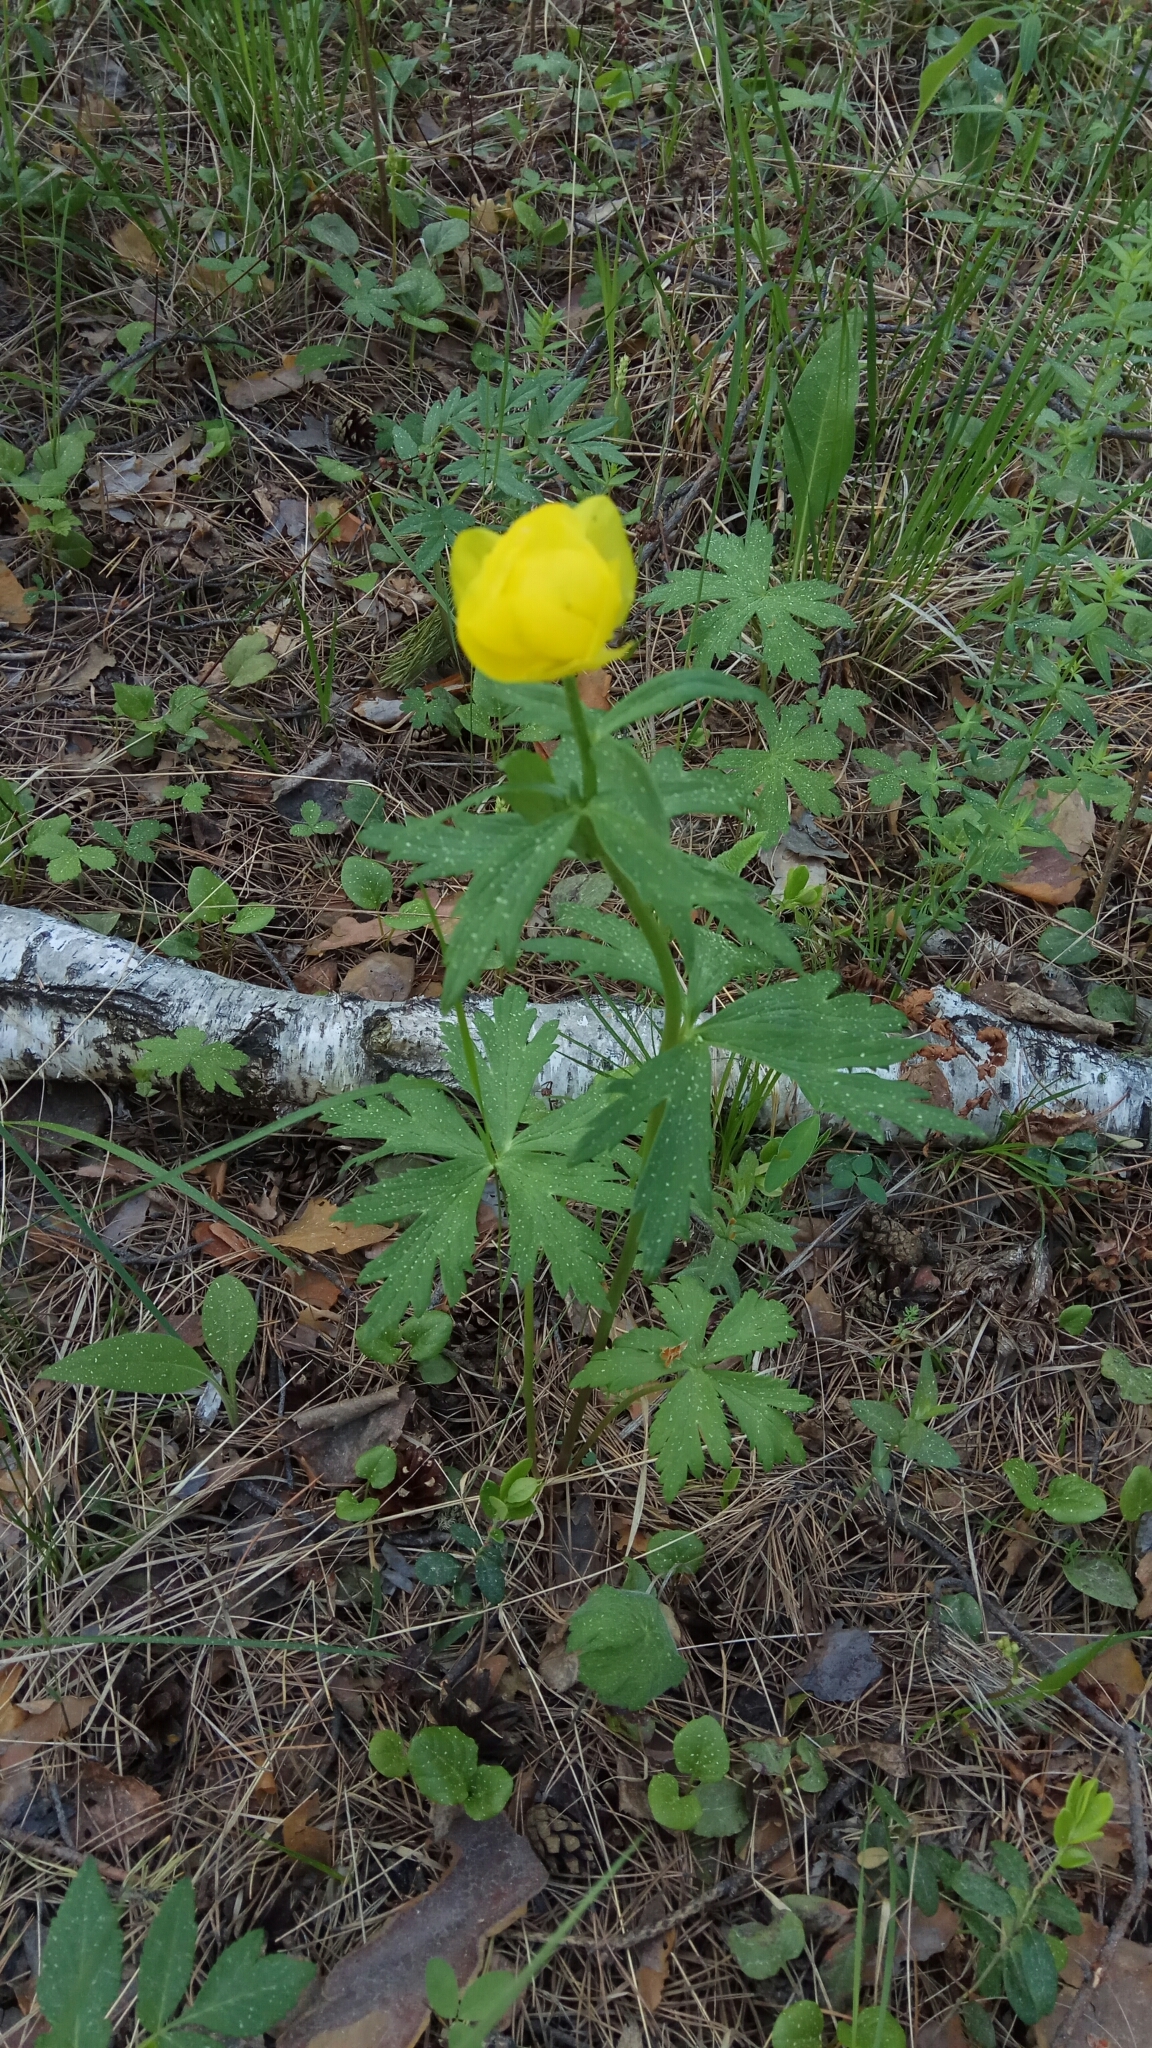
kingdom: Plantae
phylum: Tracheophyta
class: Magnoliopsida
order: Ranunculales
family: Ranunculaceae
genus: Trollius
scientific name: Trollius europaeus
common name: European globeflower
